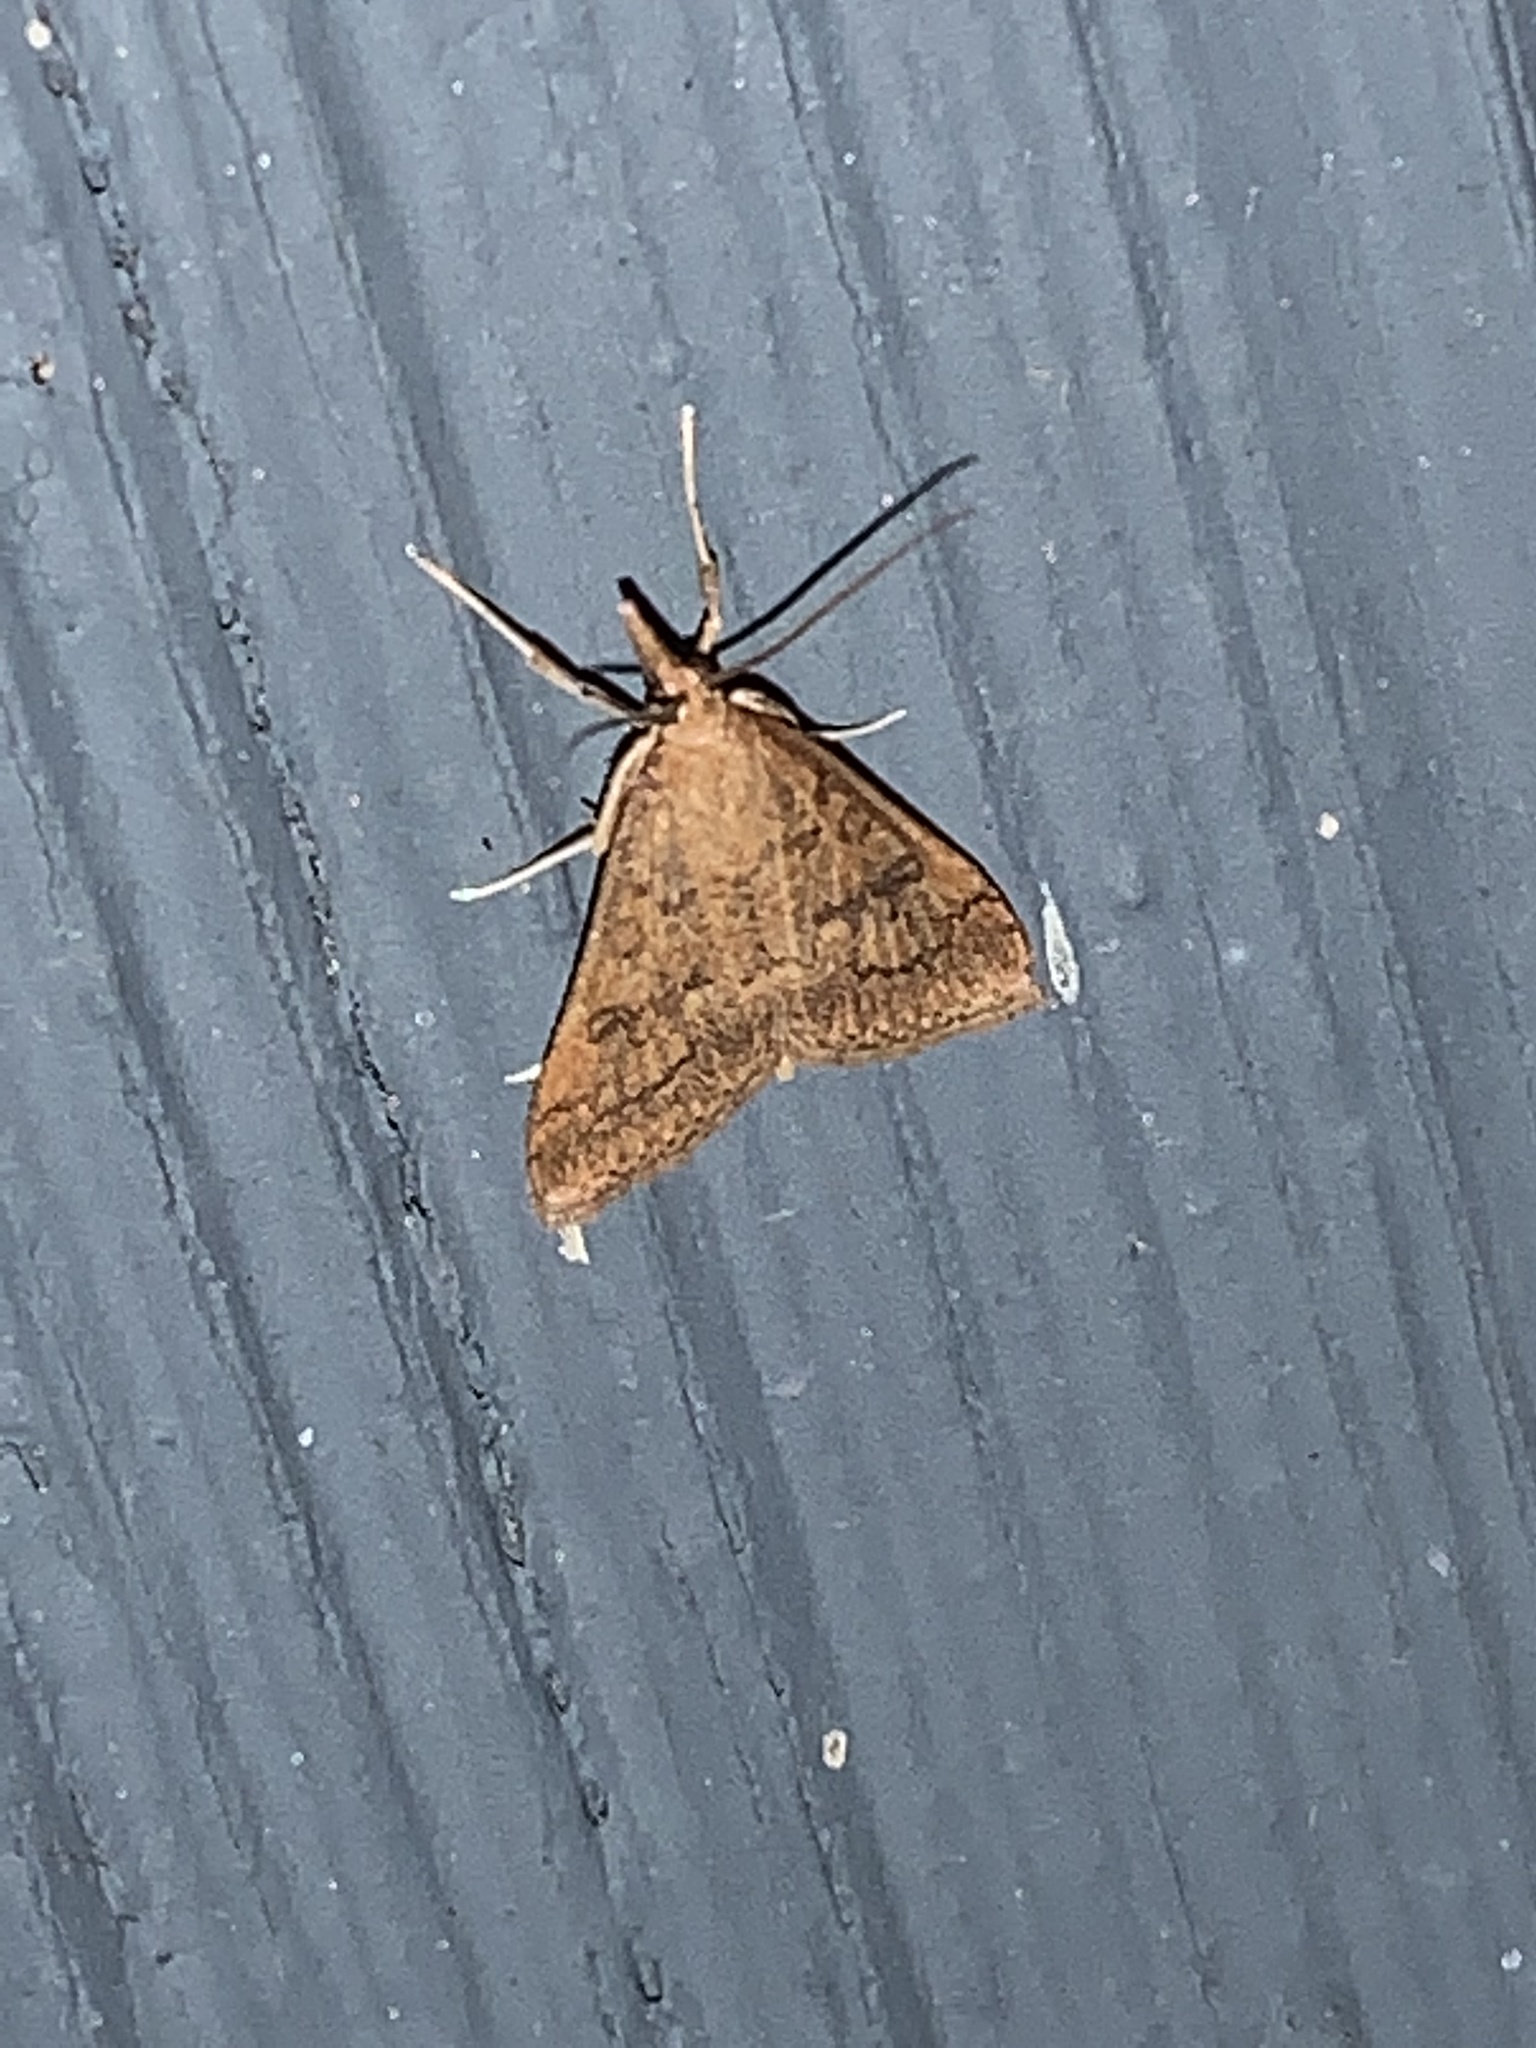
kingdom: Animalia
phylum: Arthropoda
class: Insecta
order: Lepidoptera
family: Crambidae
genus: Udea
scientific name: Udea rubigalis
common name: Celery leaftier moth
